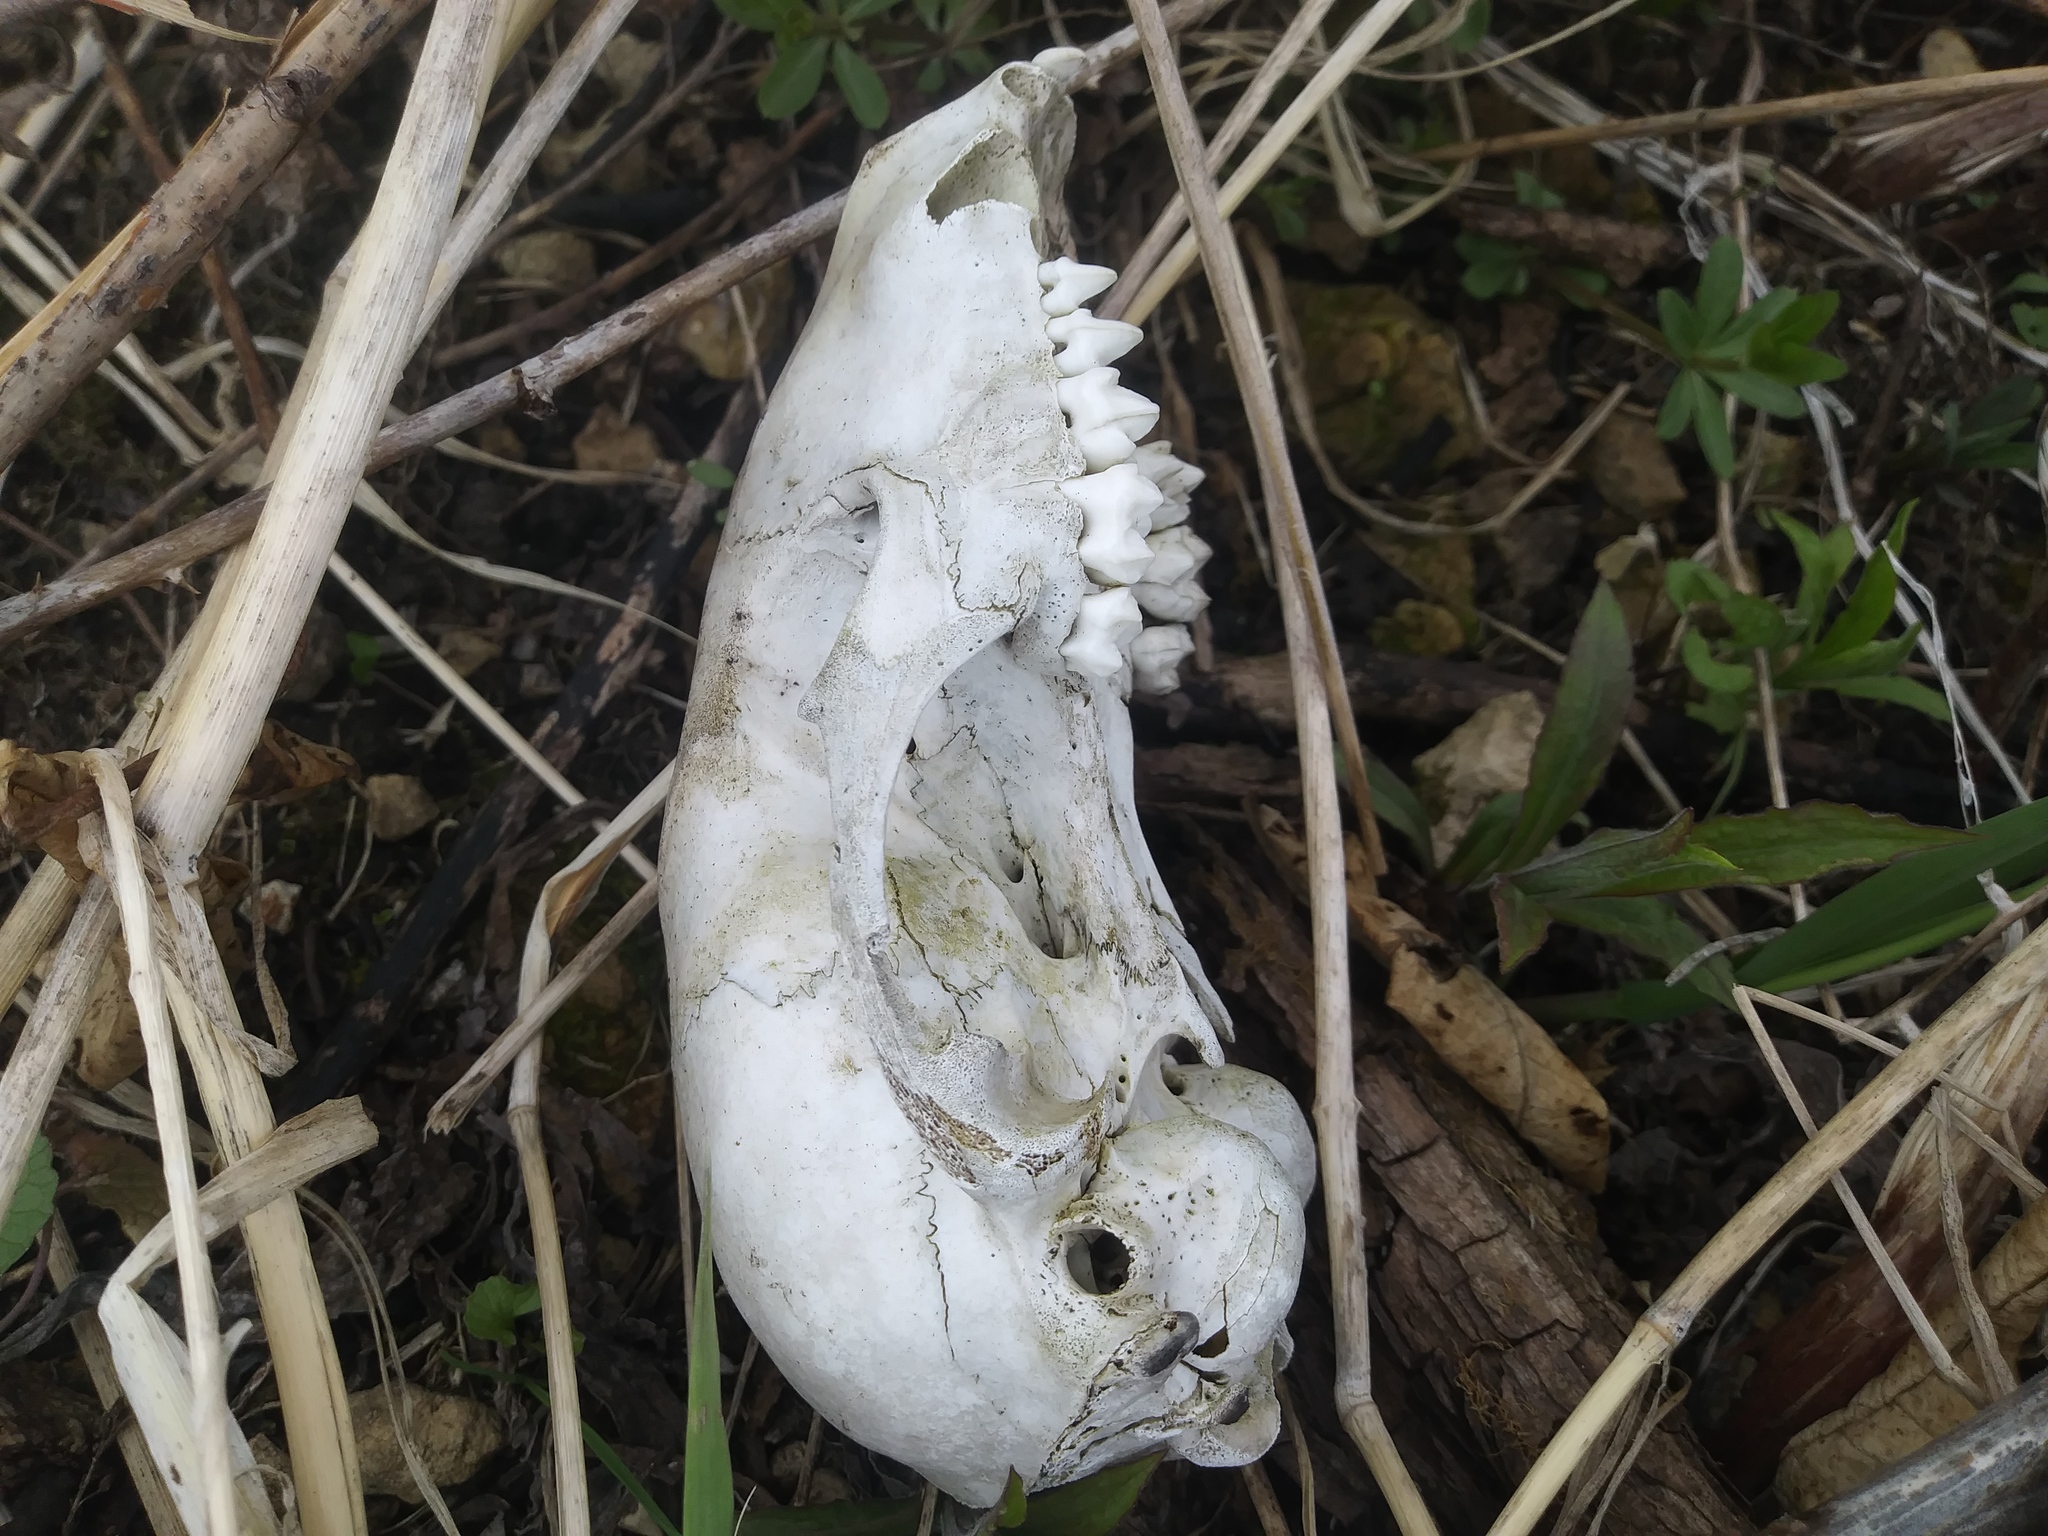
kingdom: Animalia
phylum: Chordata
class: Mammalia
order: Carnivora
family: Procyonidae
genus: Procyon
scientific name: Procyon lotor
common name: Raccoon
